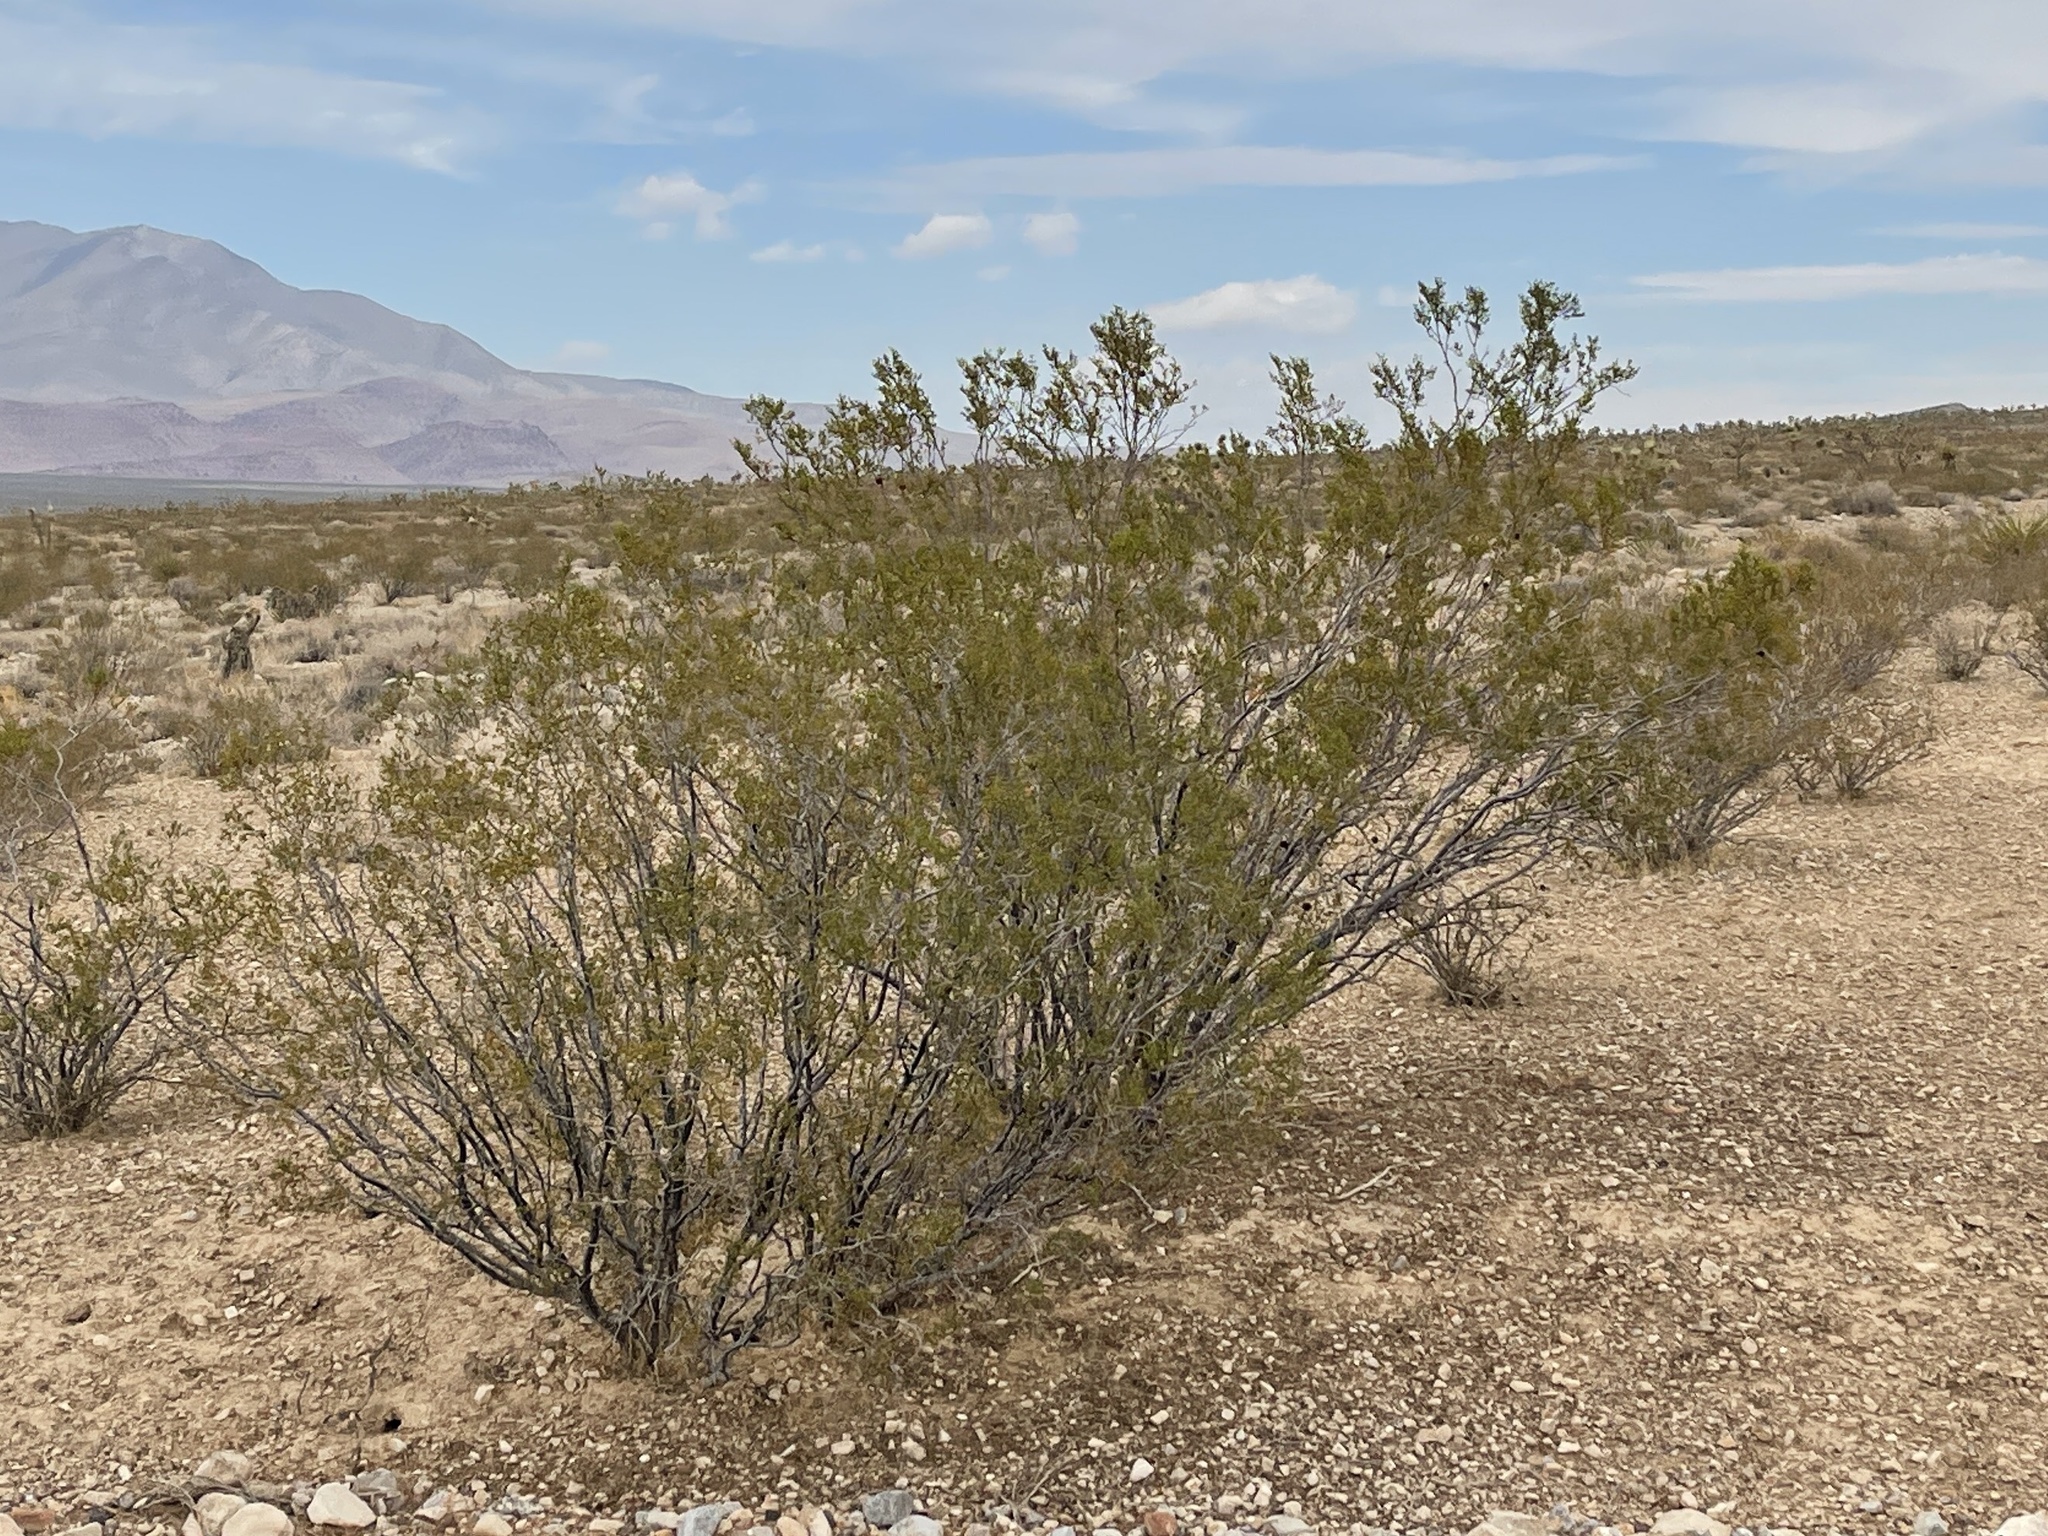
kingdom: Plantae
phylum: Tracheophyta
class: Magnoliopsida
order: Zygophyllales
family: Zygophyllaceae
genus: Larrea
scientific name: Larrea tridentata
